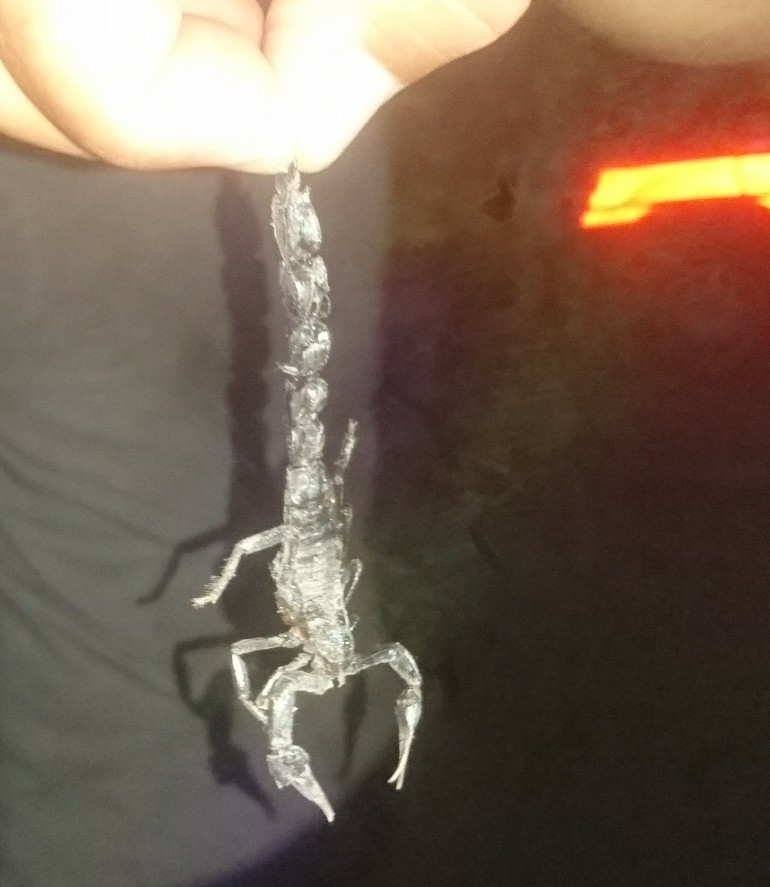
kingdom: Animalia
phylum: Arthropoda
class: Arachnida
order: Scorpiones
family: Buthidae
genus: Androctonus
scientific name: Androctonus kunti
